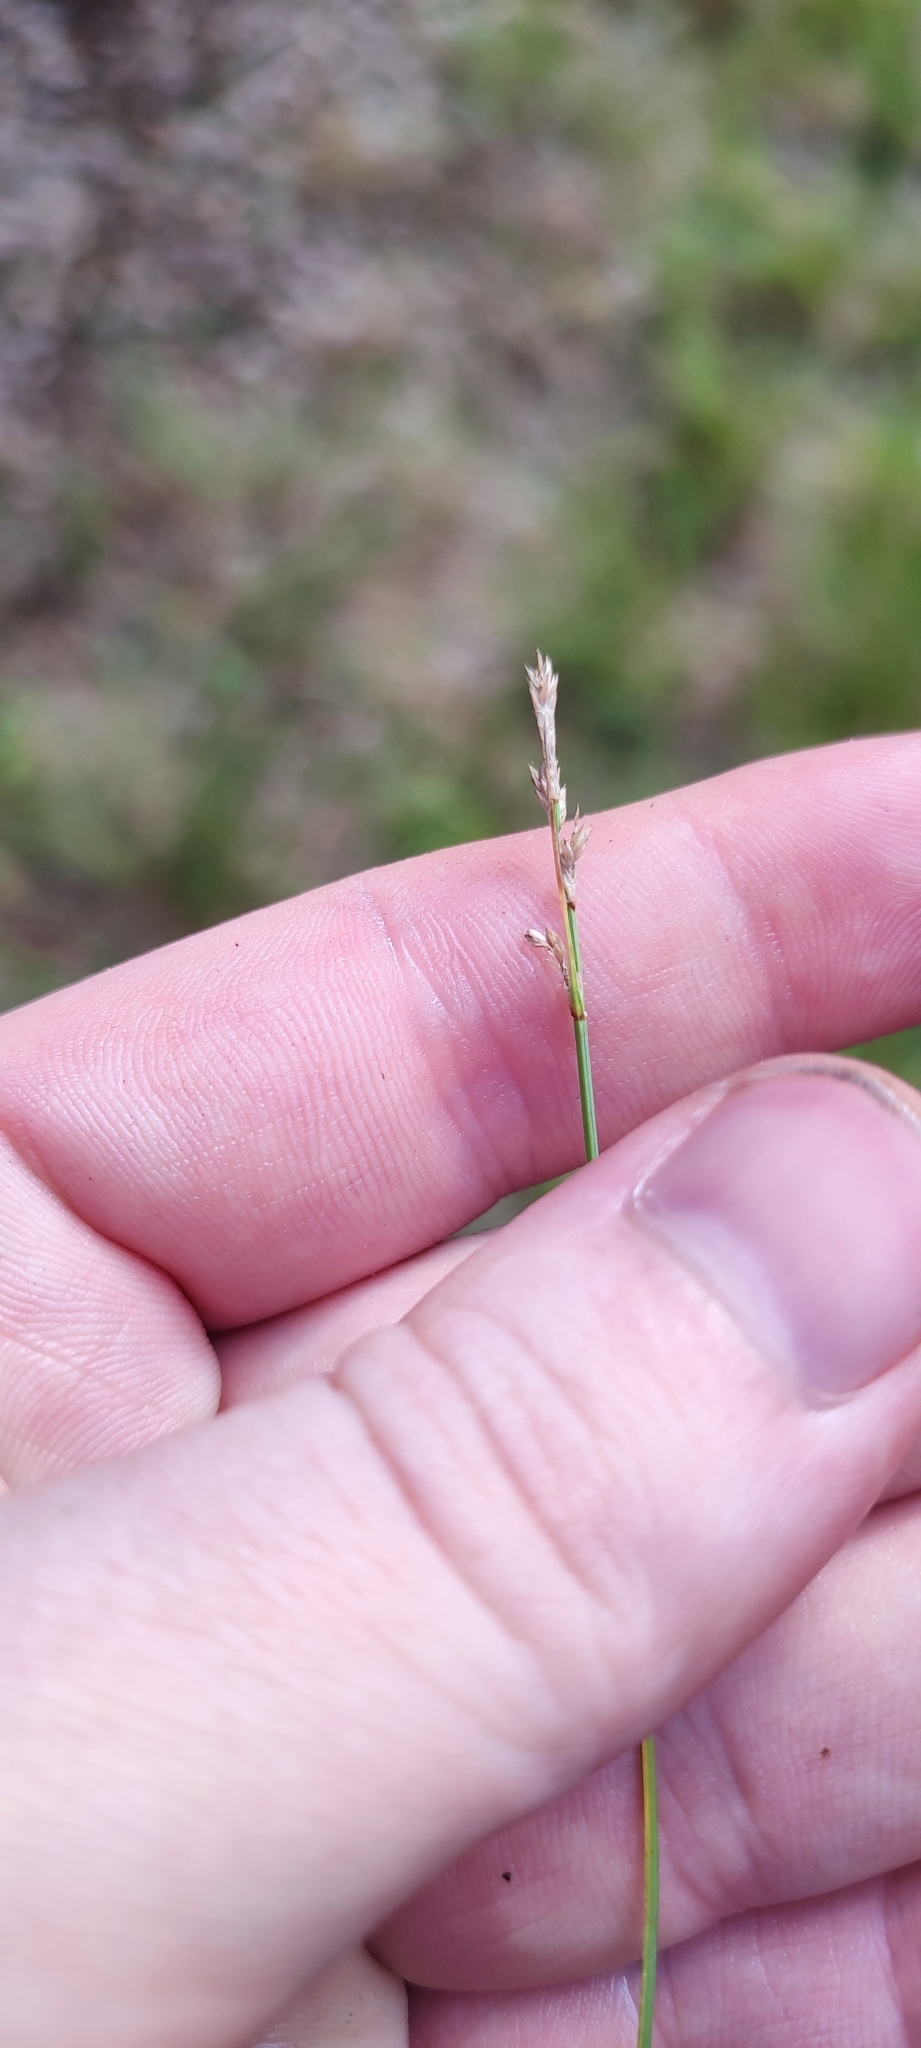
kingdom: Plantae
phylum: Tracheophyta
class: Liliopsida
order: Poales
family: Cyperaceae
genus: Carex
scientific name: Carex canescens
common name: White sedge
